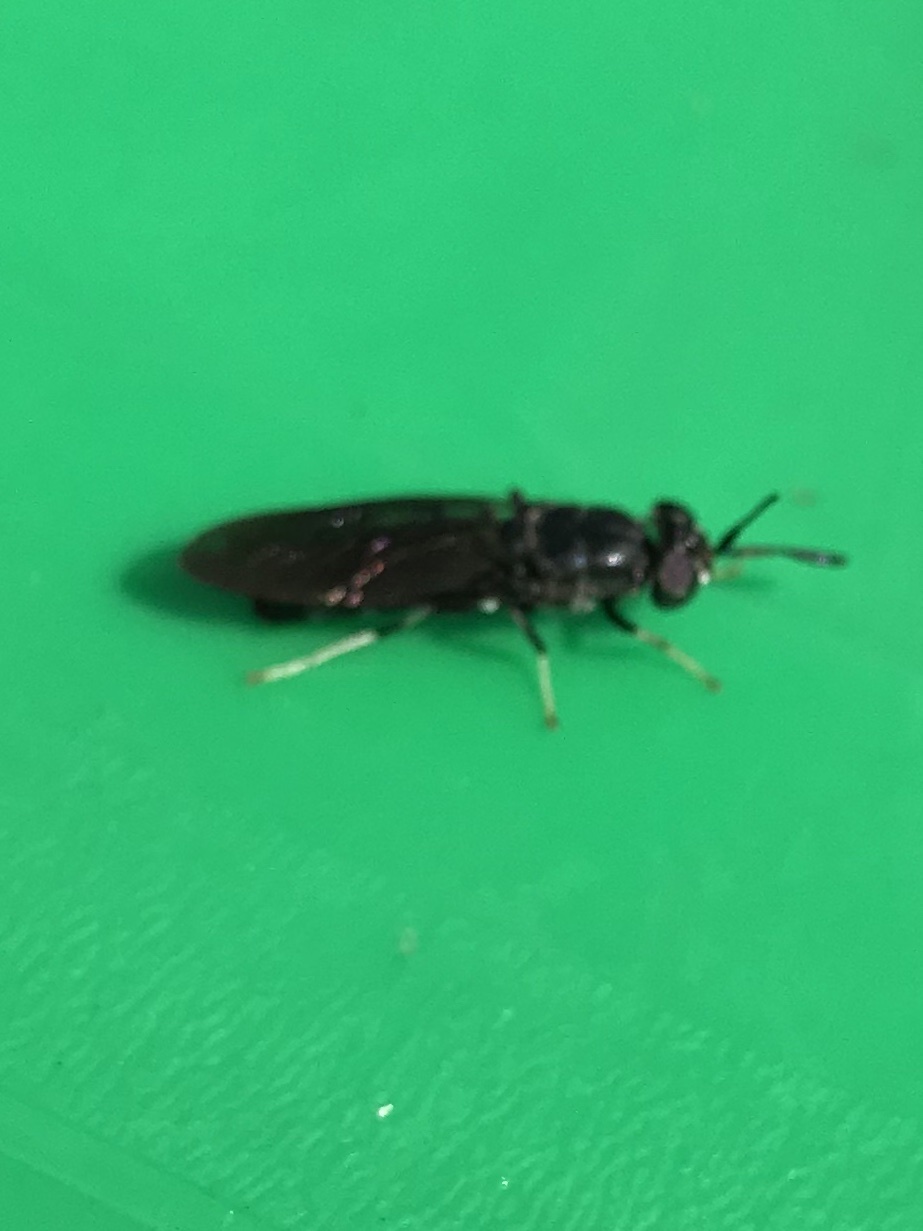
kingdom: Animalia
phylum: Arthropoda
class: Insecta
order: Diptera
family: Stratiomyidae
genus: Hermetia
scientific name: Hermetia illucens
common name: Black soldier fly
